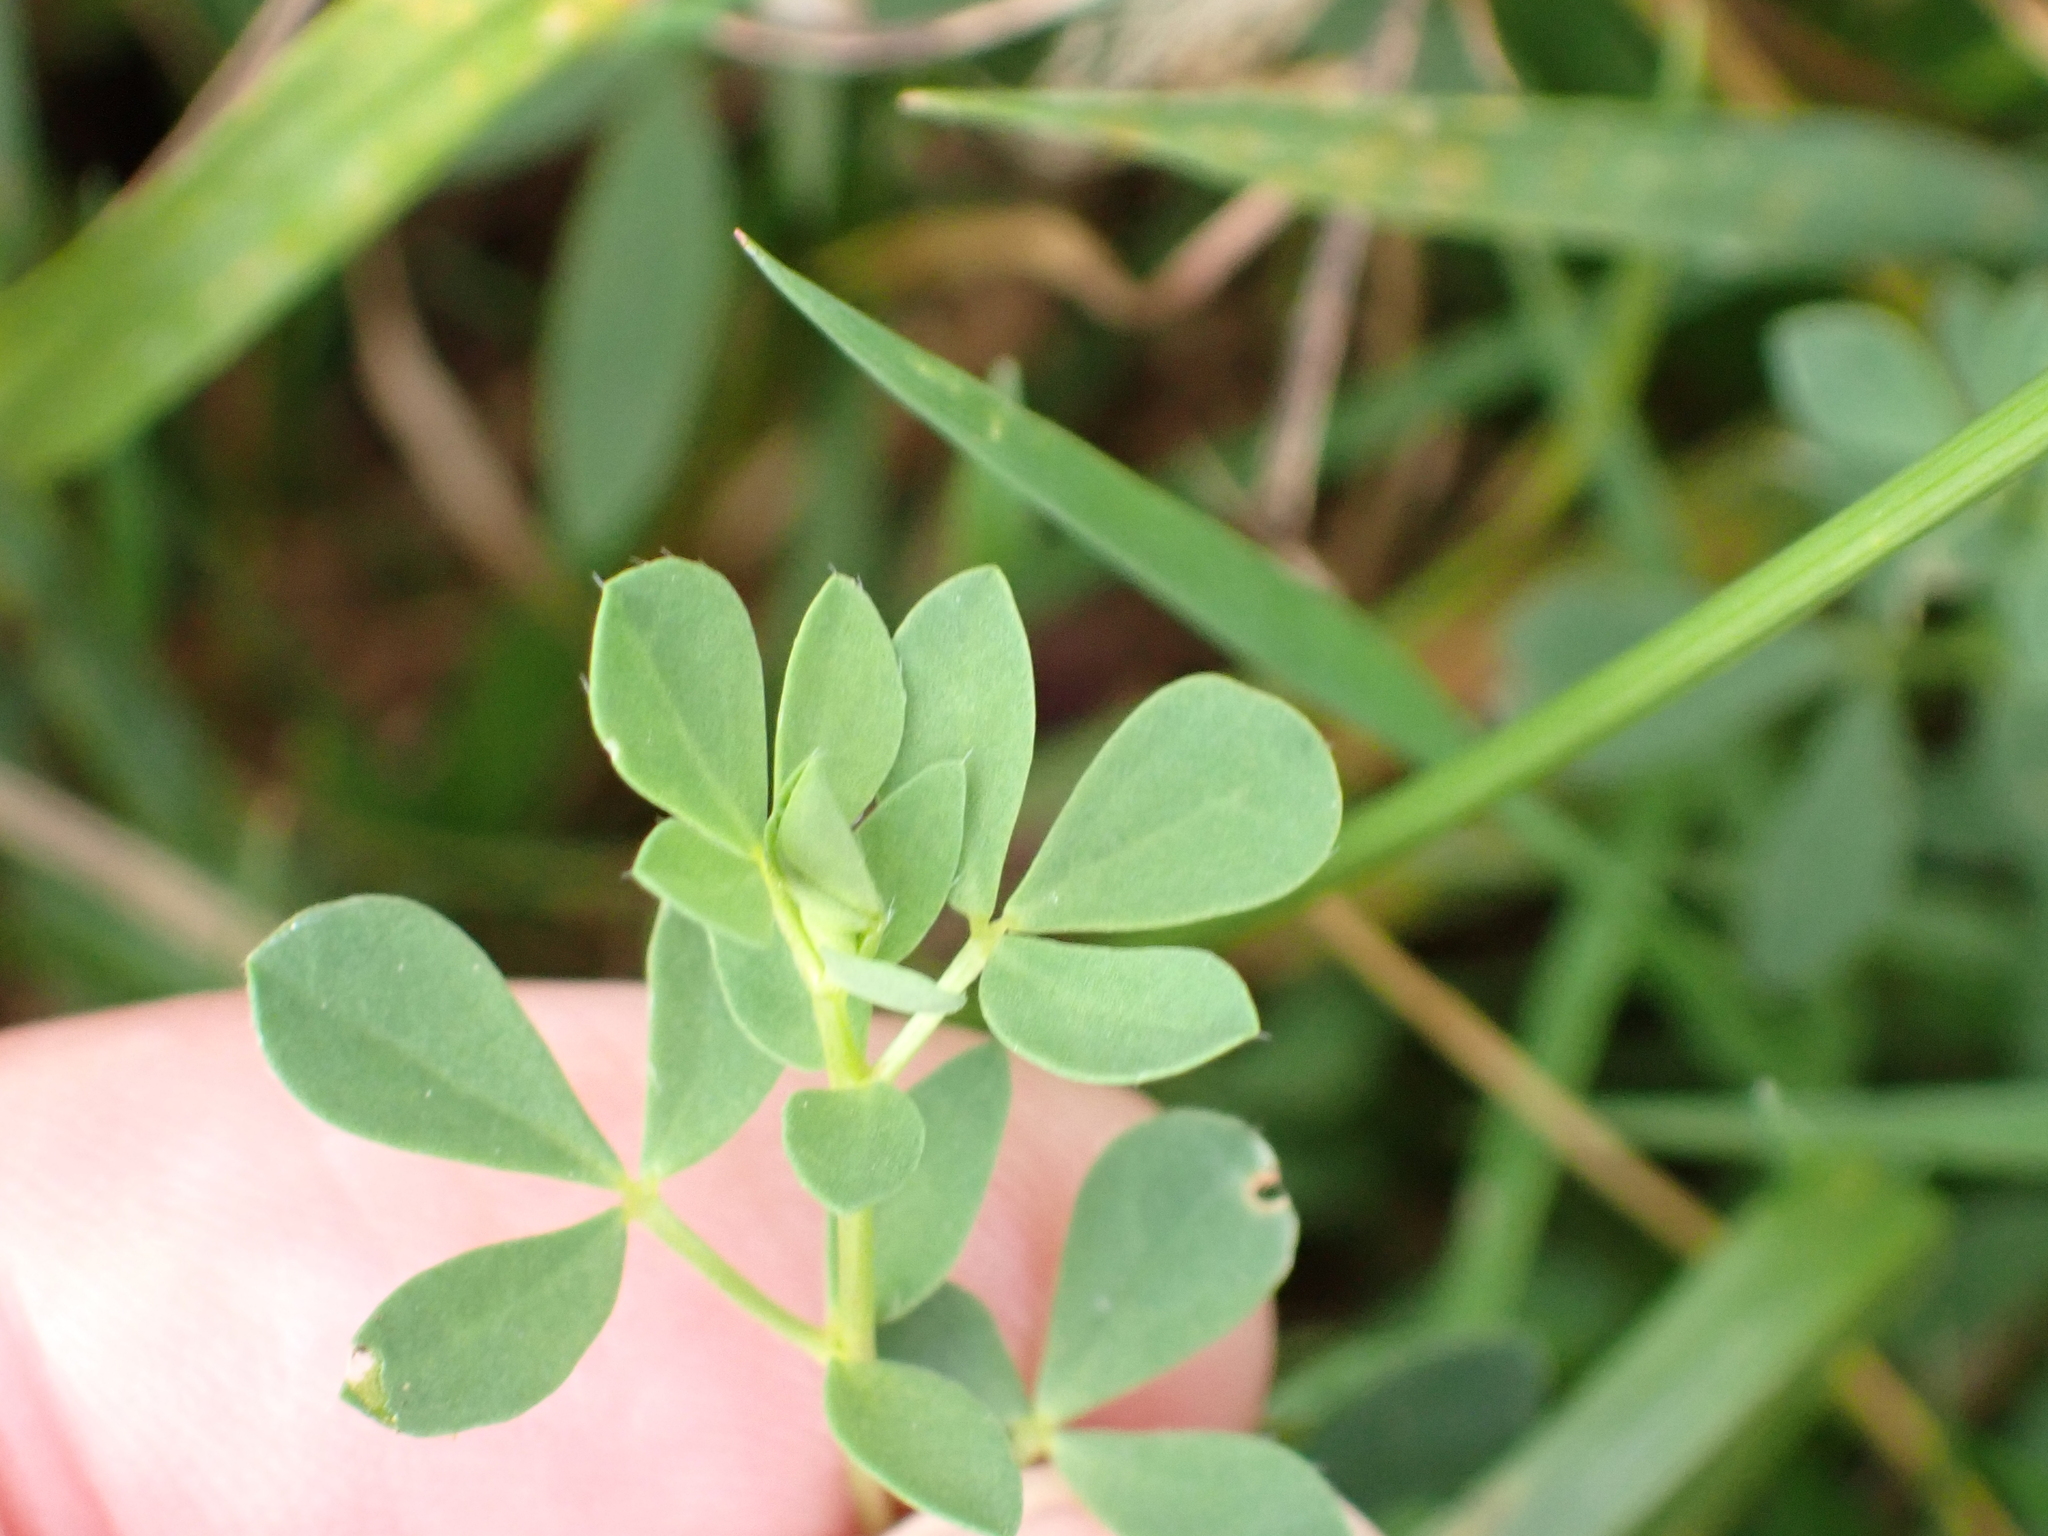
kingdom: Plantae
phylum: Tracheophyta
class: Magnoliopsida
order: Fabales
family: Fabaceae
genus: Lotus
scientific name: Lotus corniculatus
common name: Common bird's-foot-trefoil
